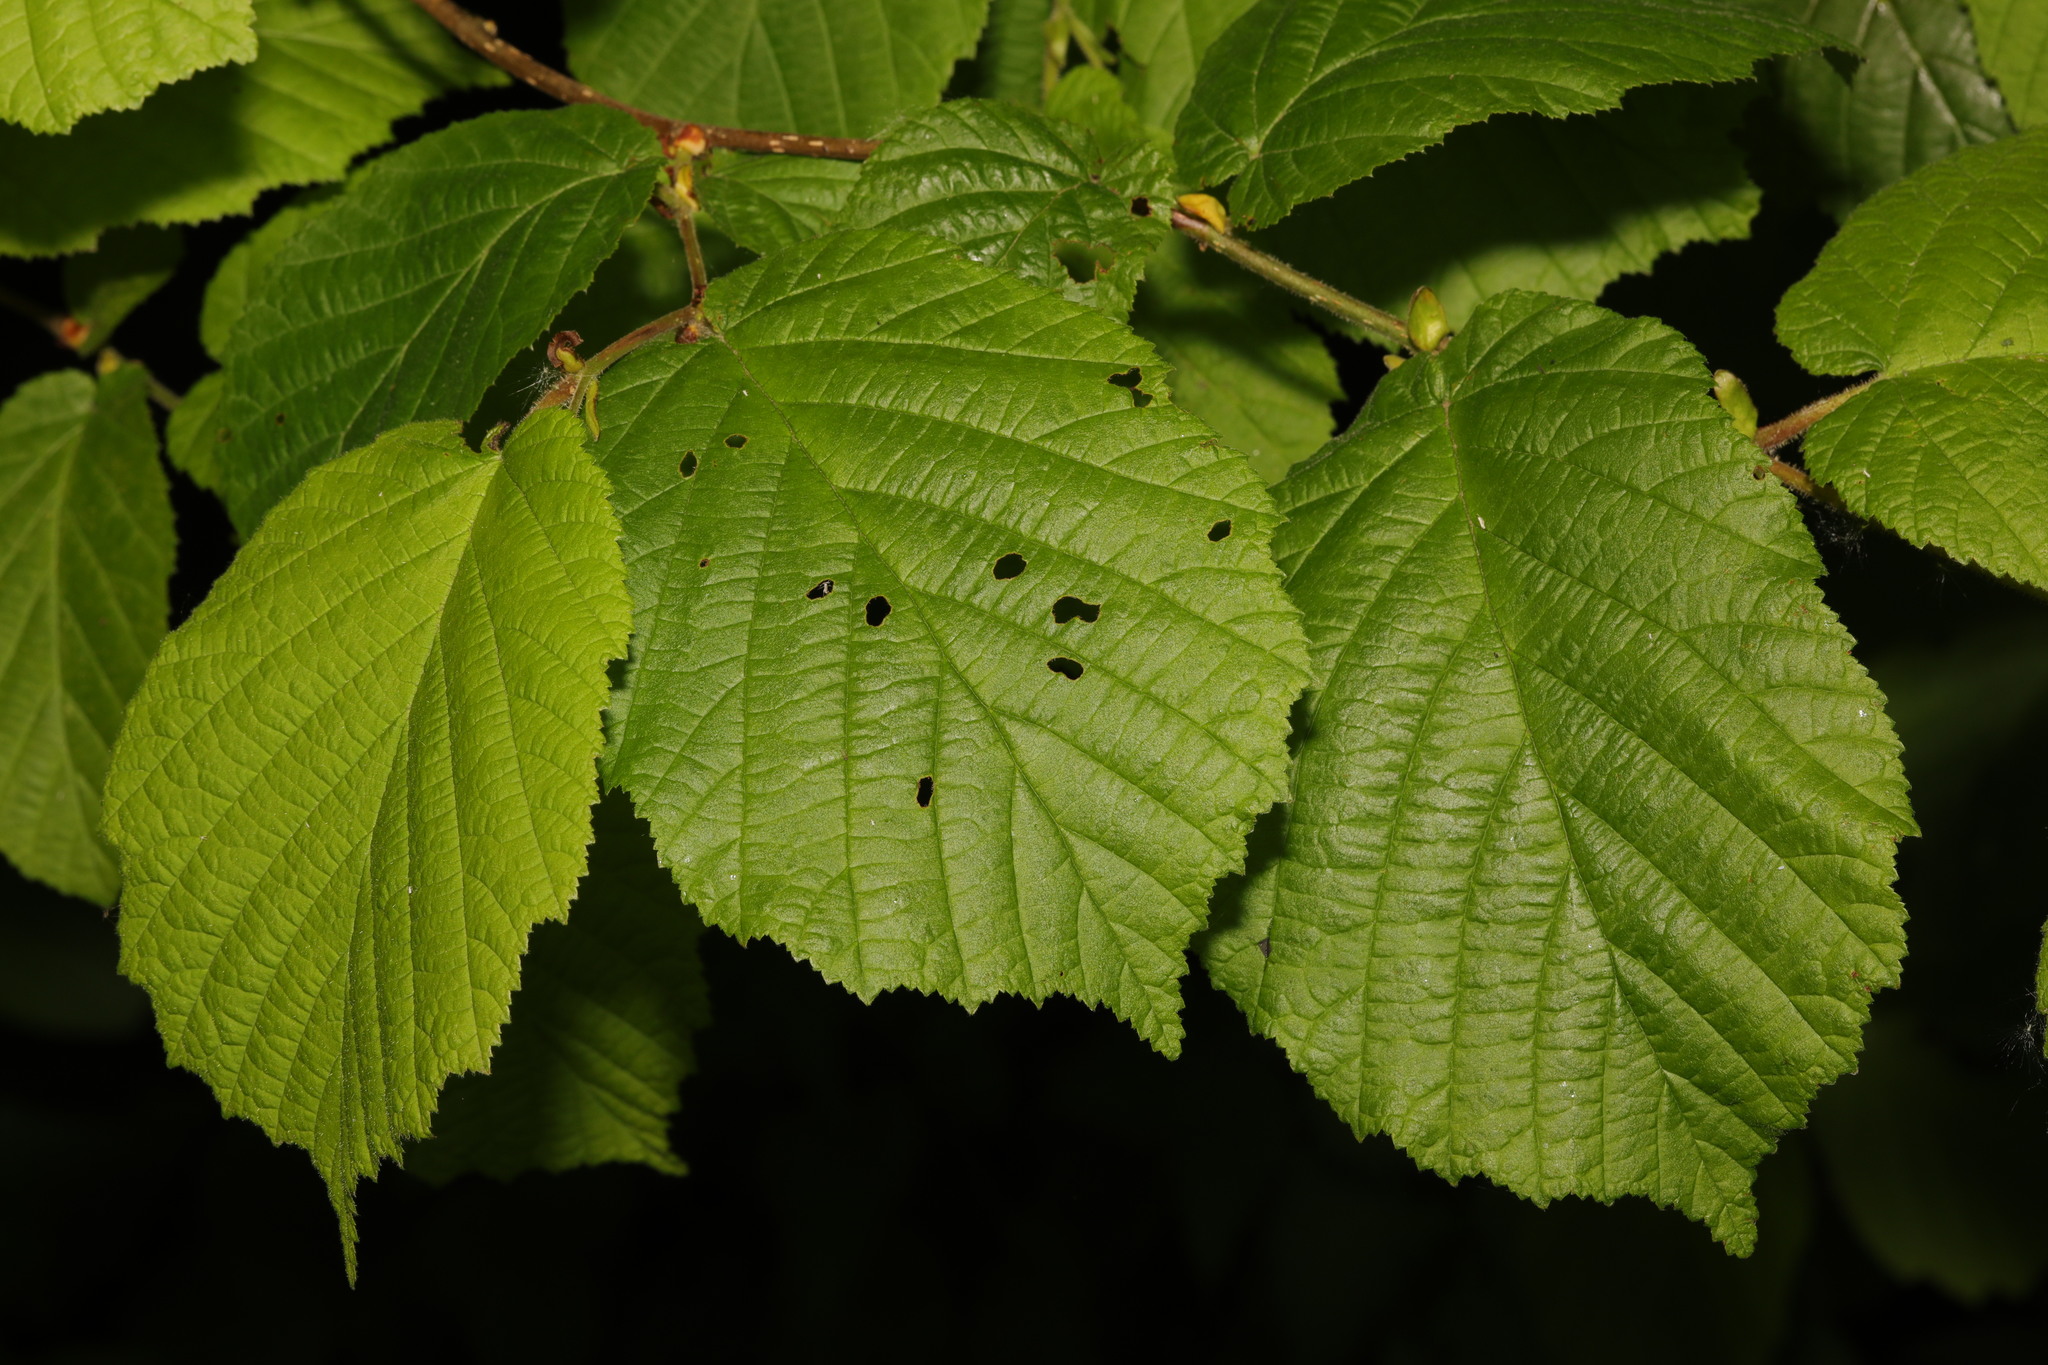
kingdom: Plantae
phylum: Tracheophyta
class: Magnoliopsida
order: Fagales
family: Betulaceae
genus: Corylus
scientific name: Corylus avellana
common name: European hazel
